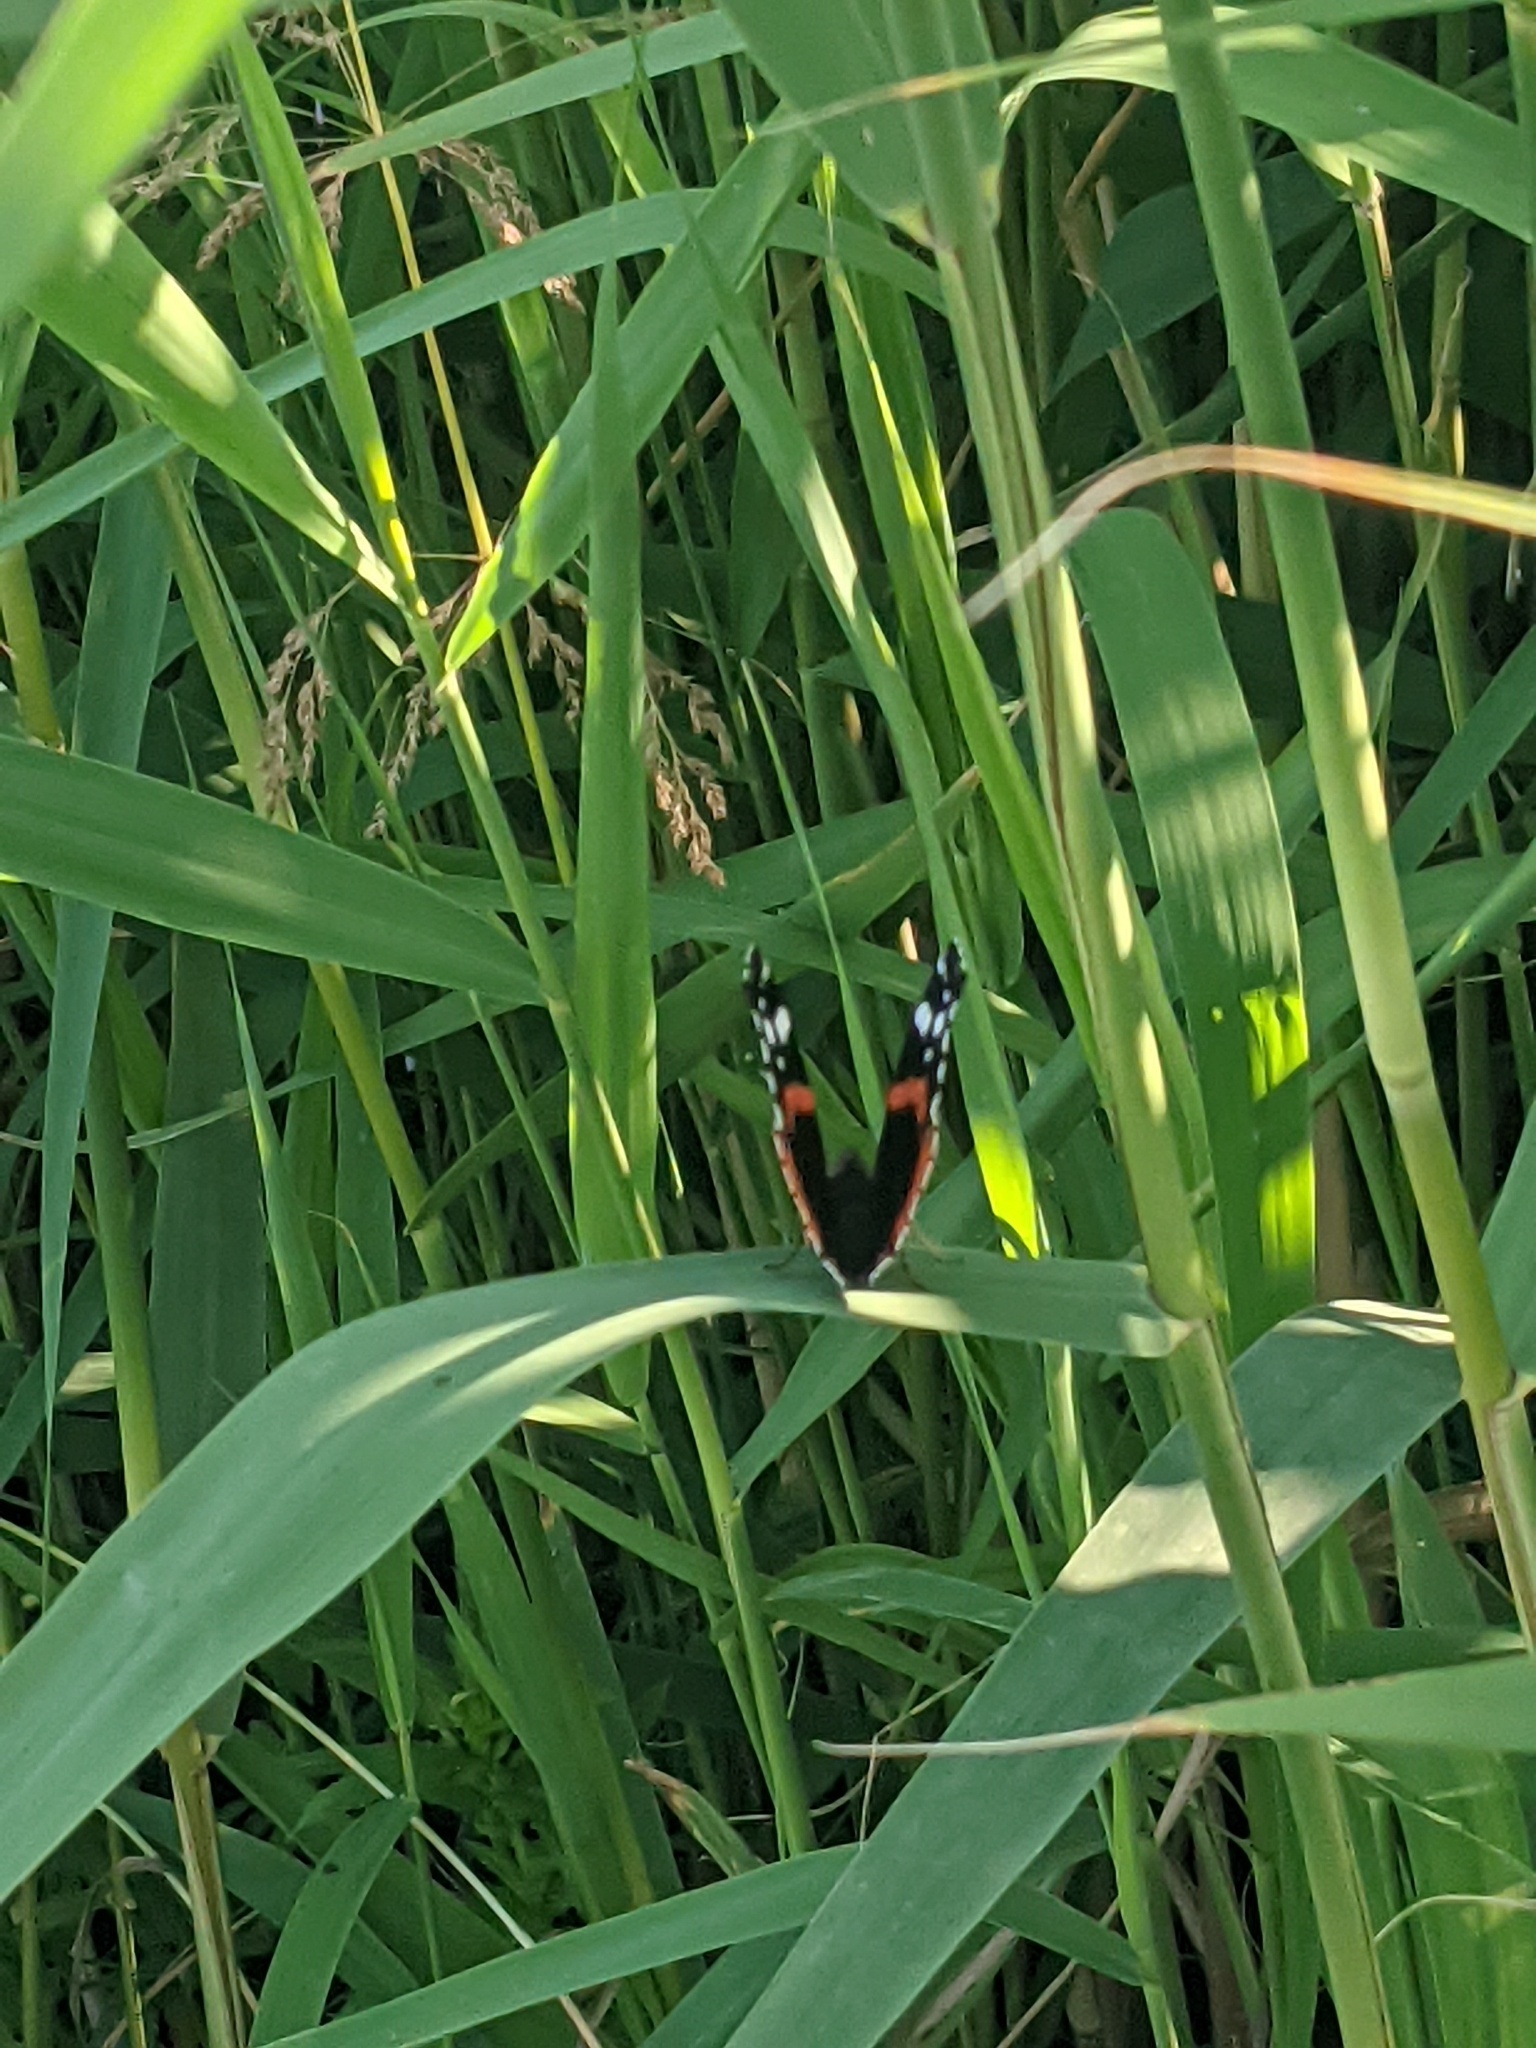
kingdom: Animalia
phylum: Arthropoda
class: Insecta
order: Lepidoptera
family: Nymphalidae
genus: Vanessa
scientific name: Vanessa atalanta
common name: Red admiral
